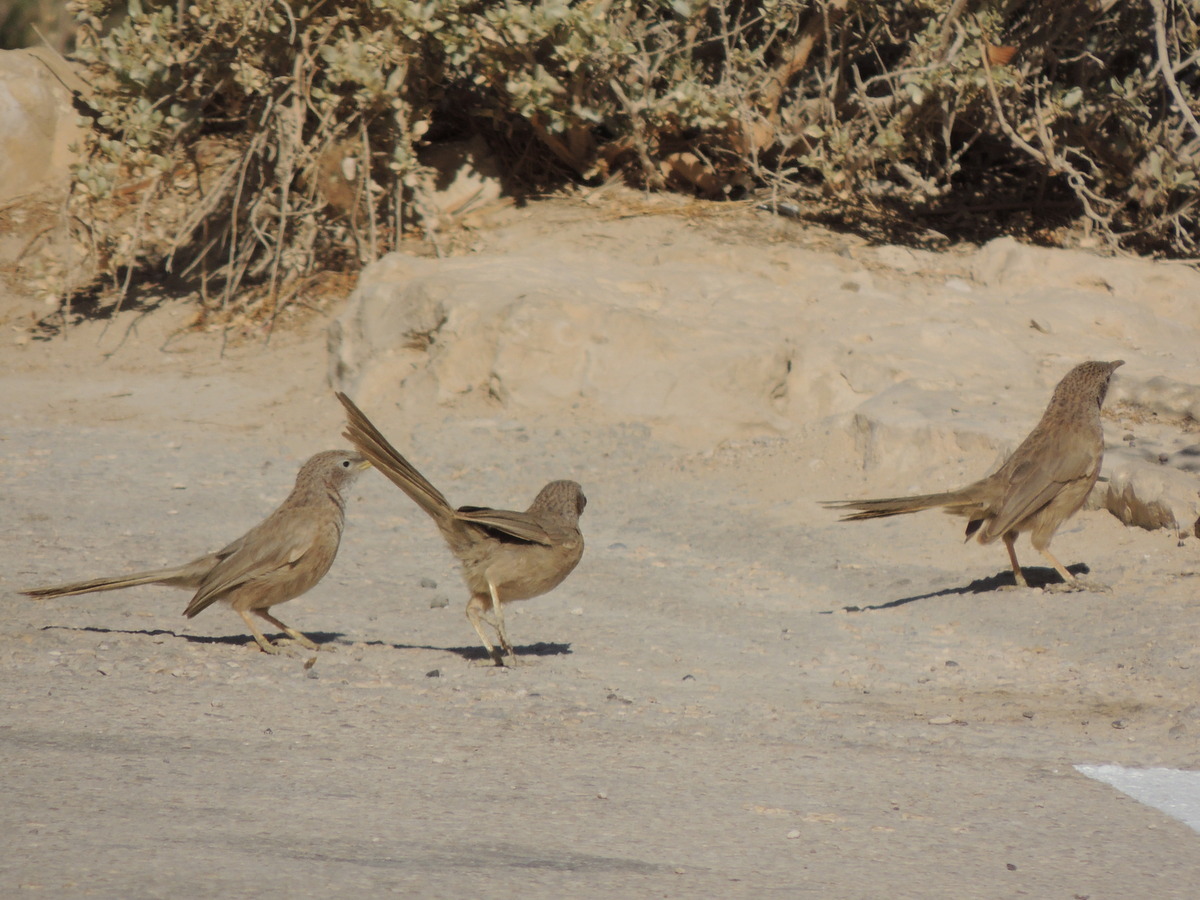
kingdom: Animalia
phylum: Chordata
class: Aves
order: Passeriformes
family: Leiothrichidae
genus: Turdoides
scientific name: Turdoides squamiceps
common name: Arabian babbler
